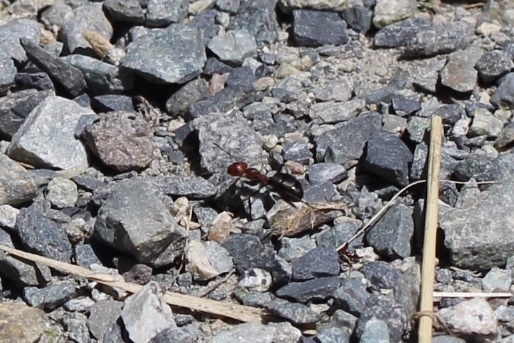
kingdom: Animalia
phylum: Arthropoda
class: Insecta
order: Hymenoptera
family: Formicidae
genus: Formica
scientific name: Formica obscuripes
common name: Western thatching ant
